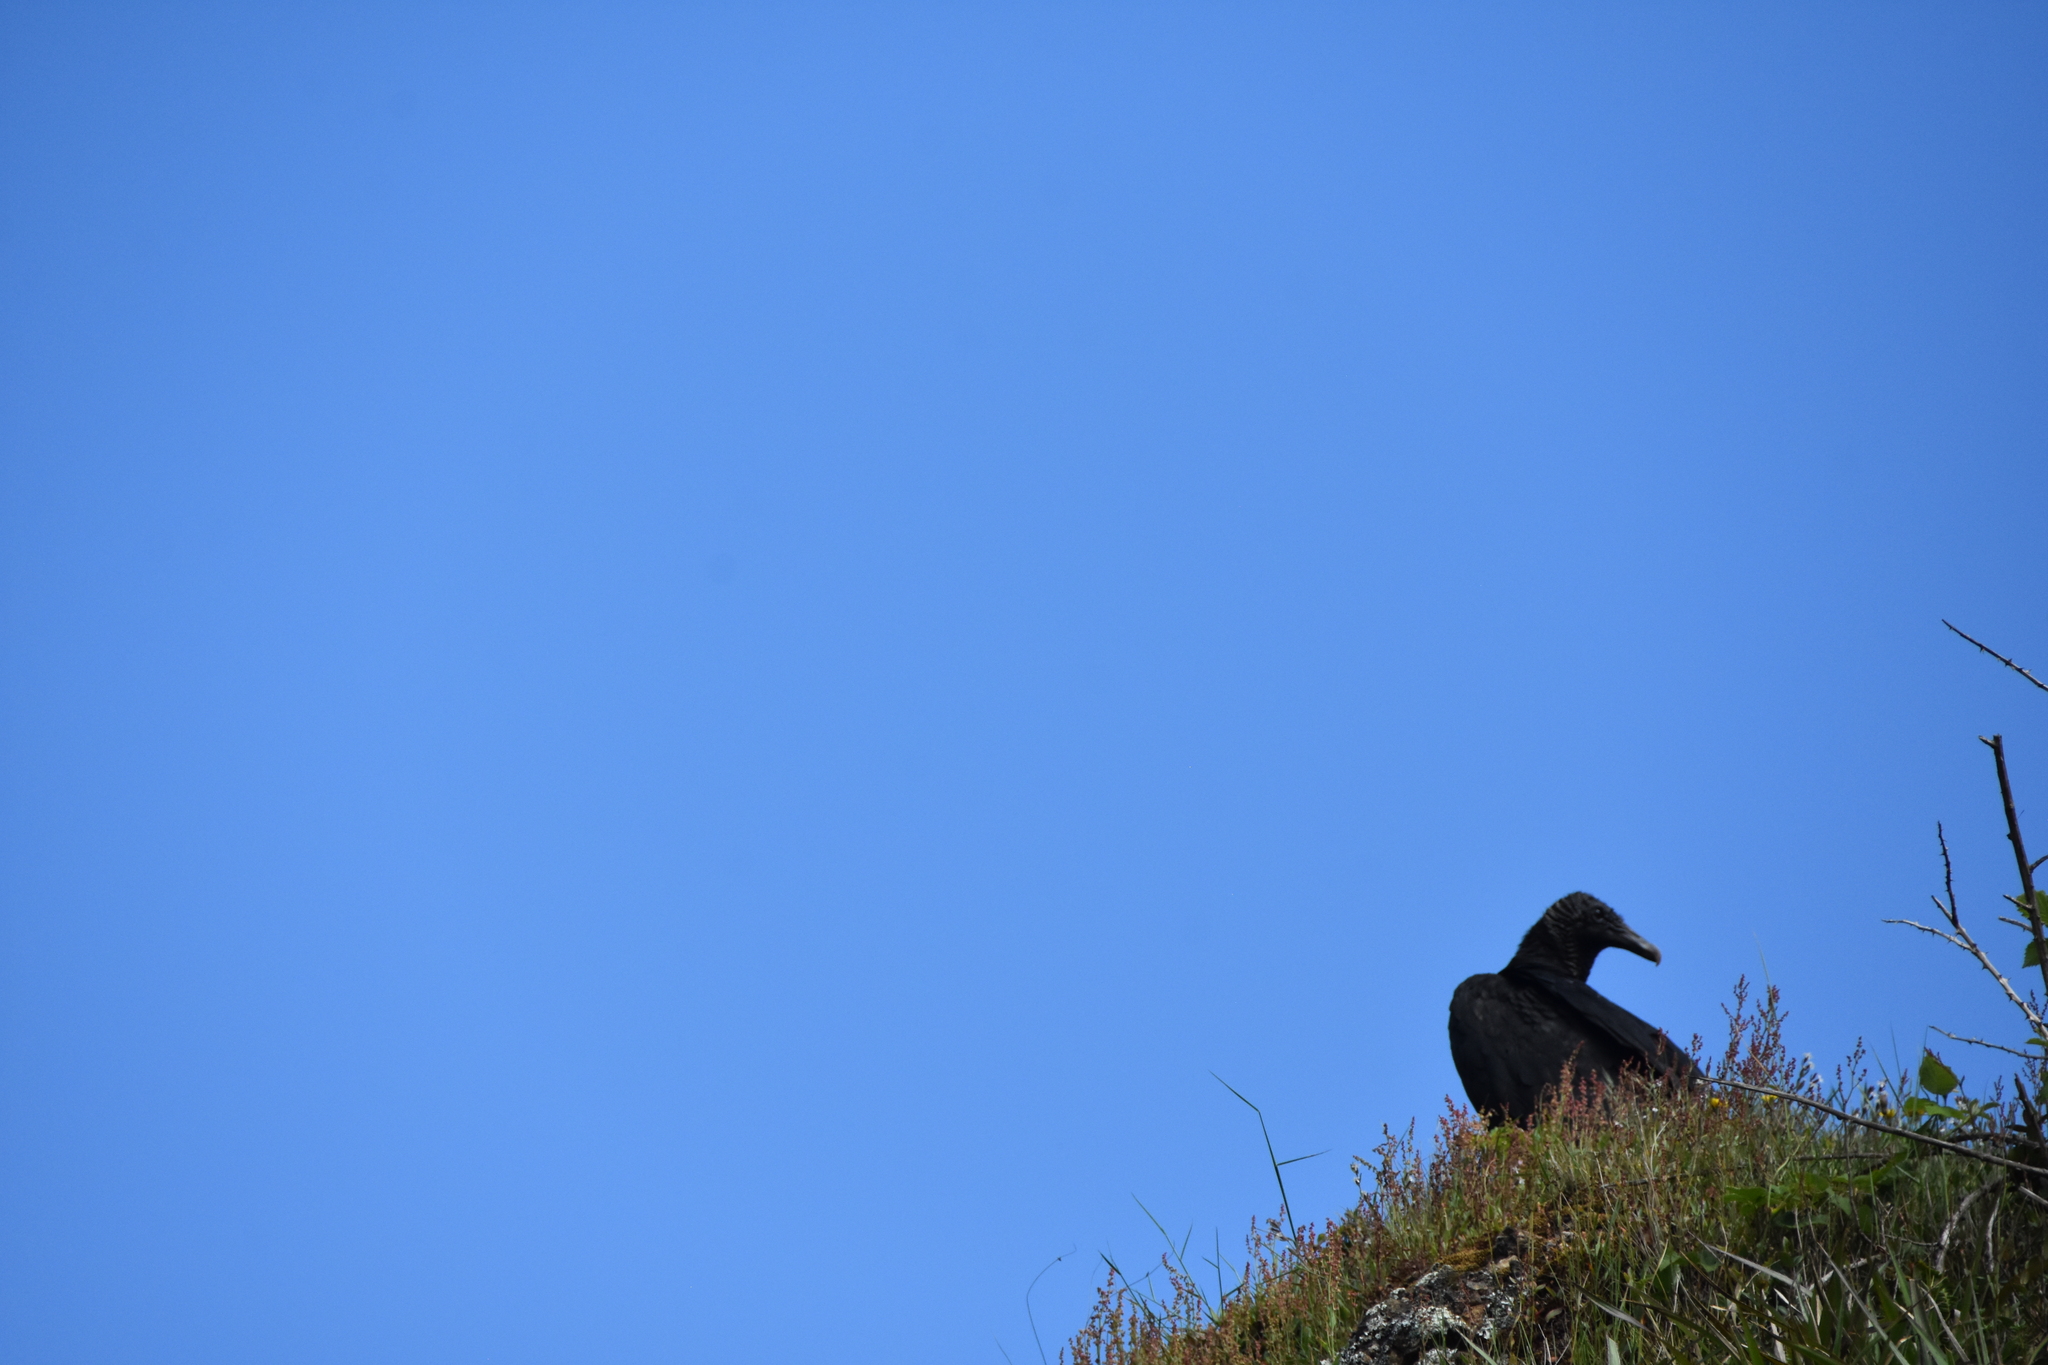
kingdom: Animalia
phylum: Chordata
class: Aves
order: Accipitriformes
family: Cathartidae
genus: Coragyps
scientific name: Coragyps atratus
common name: Black vulture
